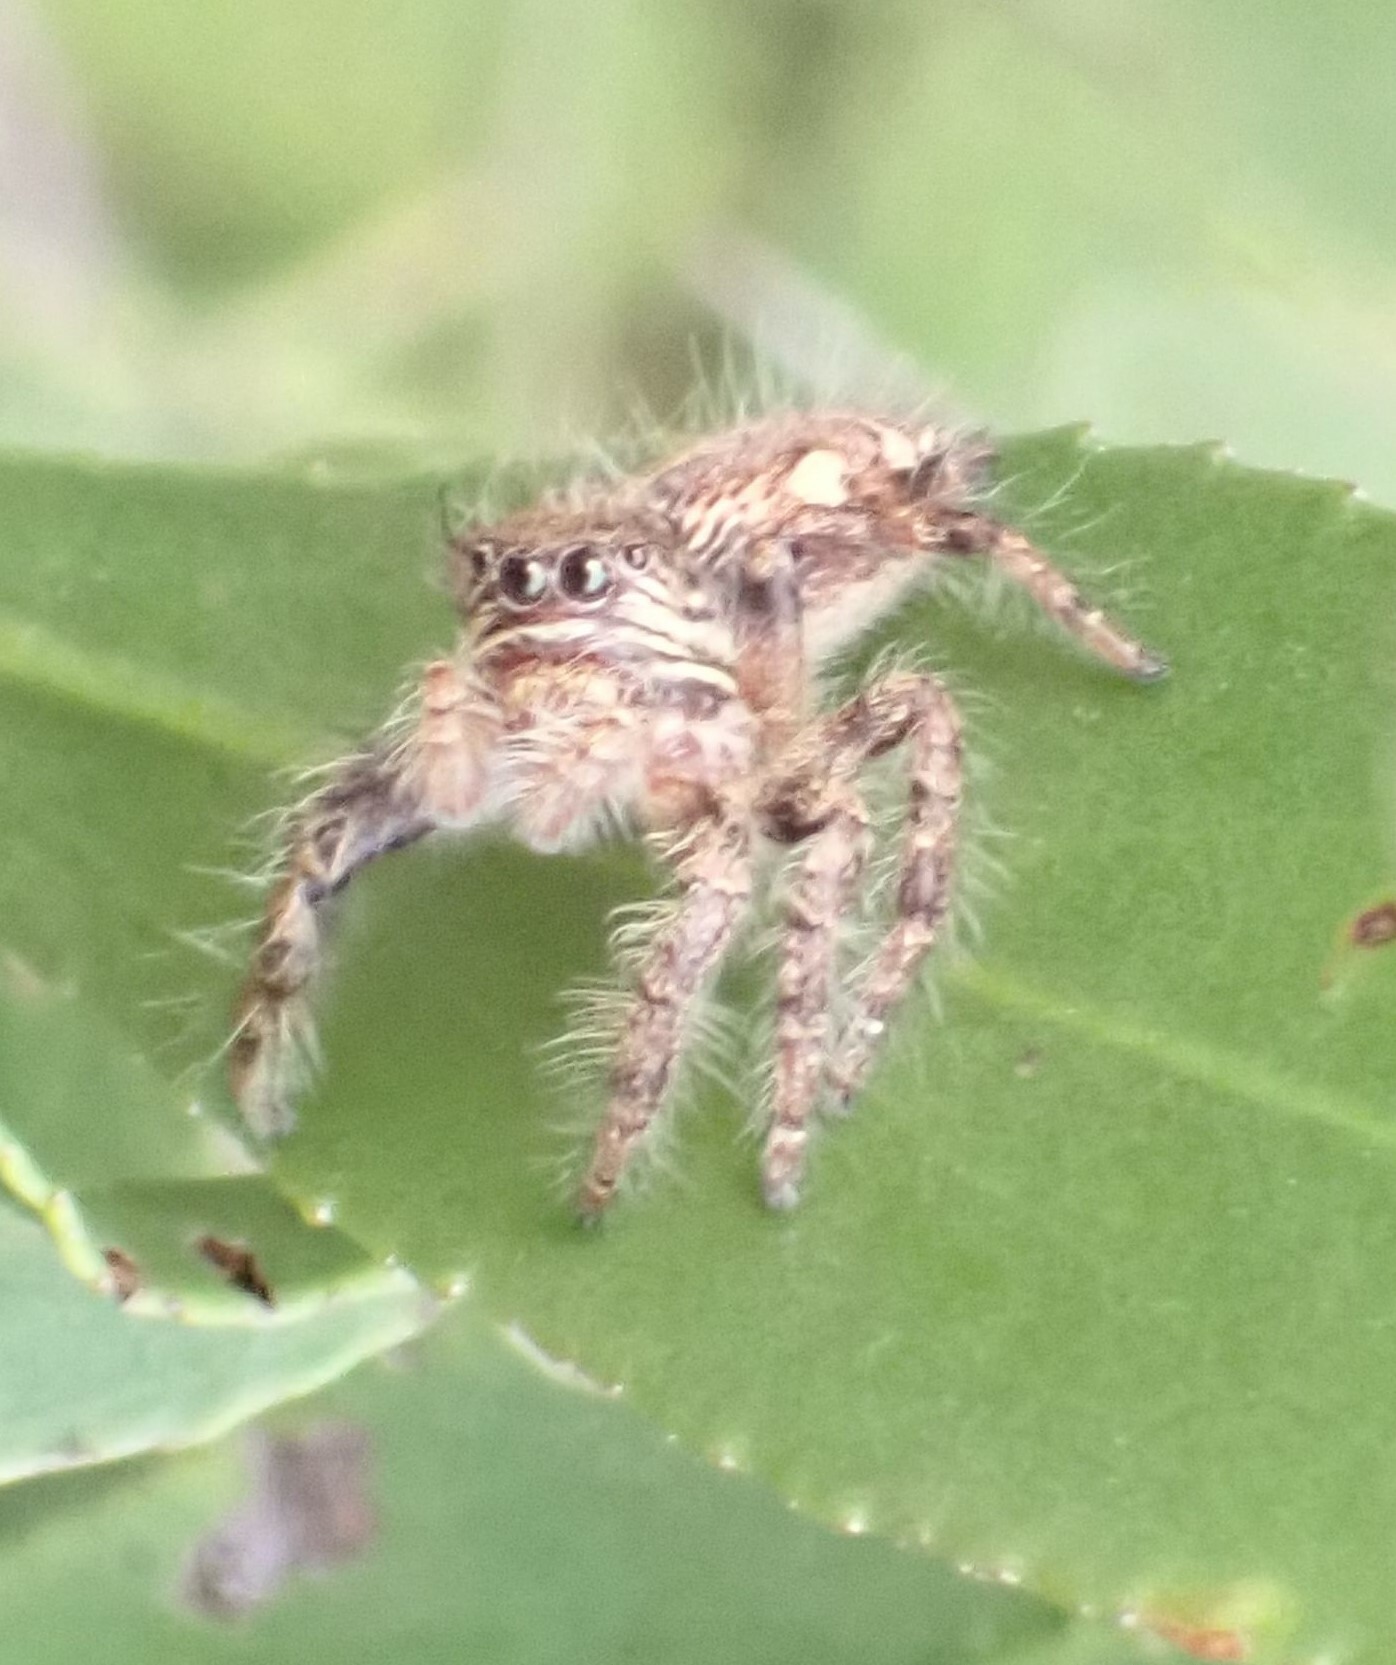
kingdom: Animalia
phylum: Arthropoda
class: Arachnida
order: Araneae
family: Salticidae
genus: Hyllus
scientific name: Hyllus treleaveni
